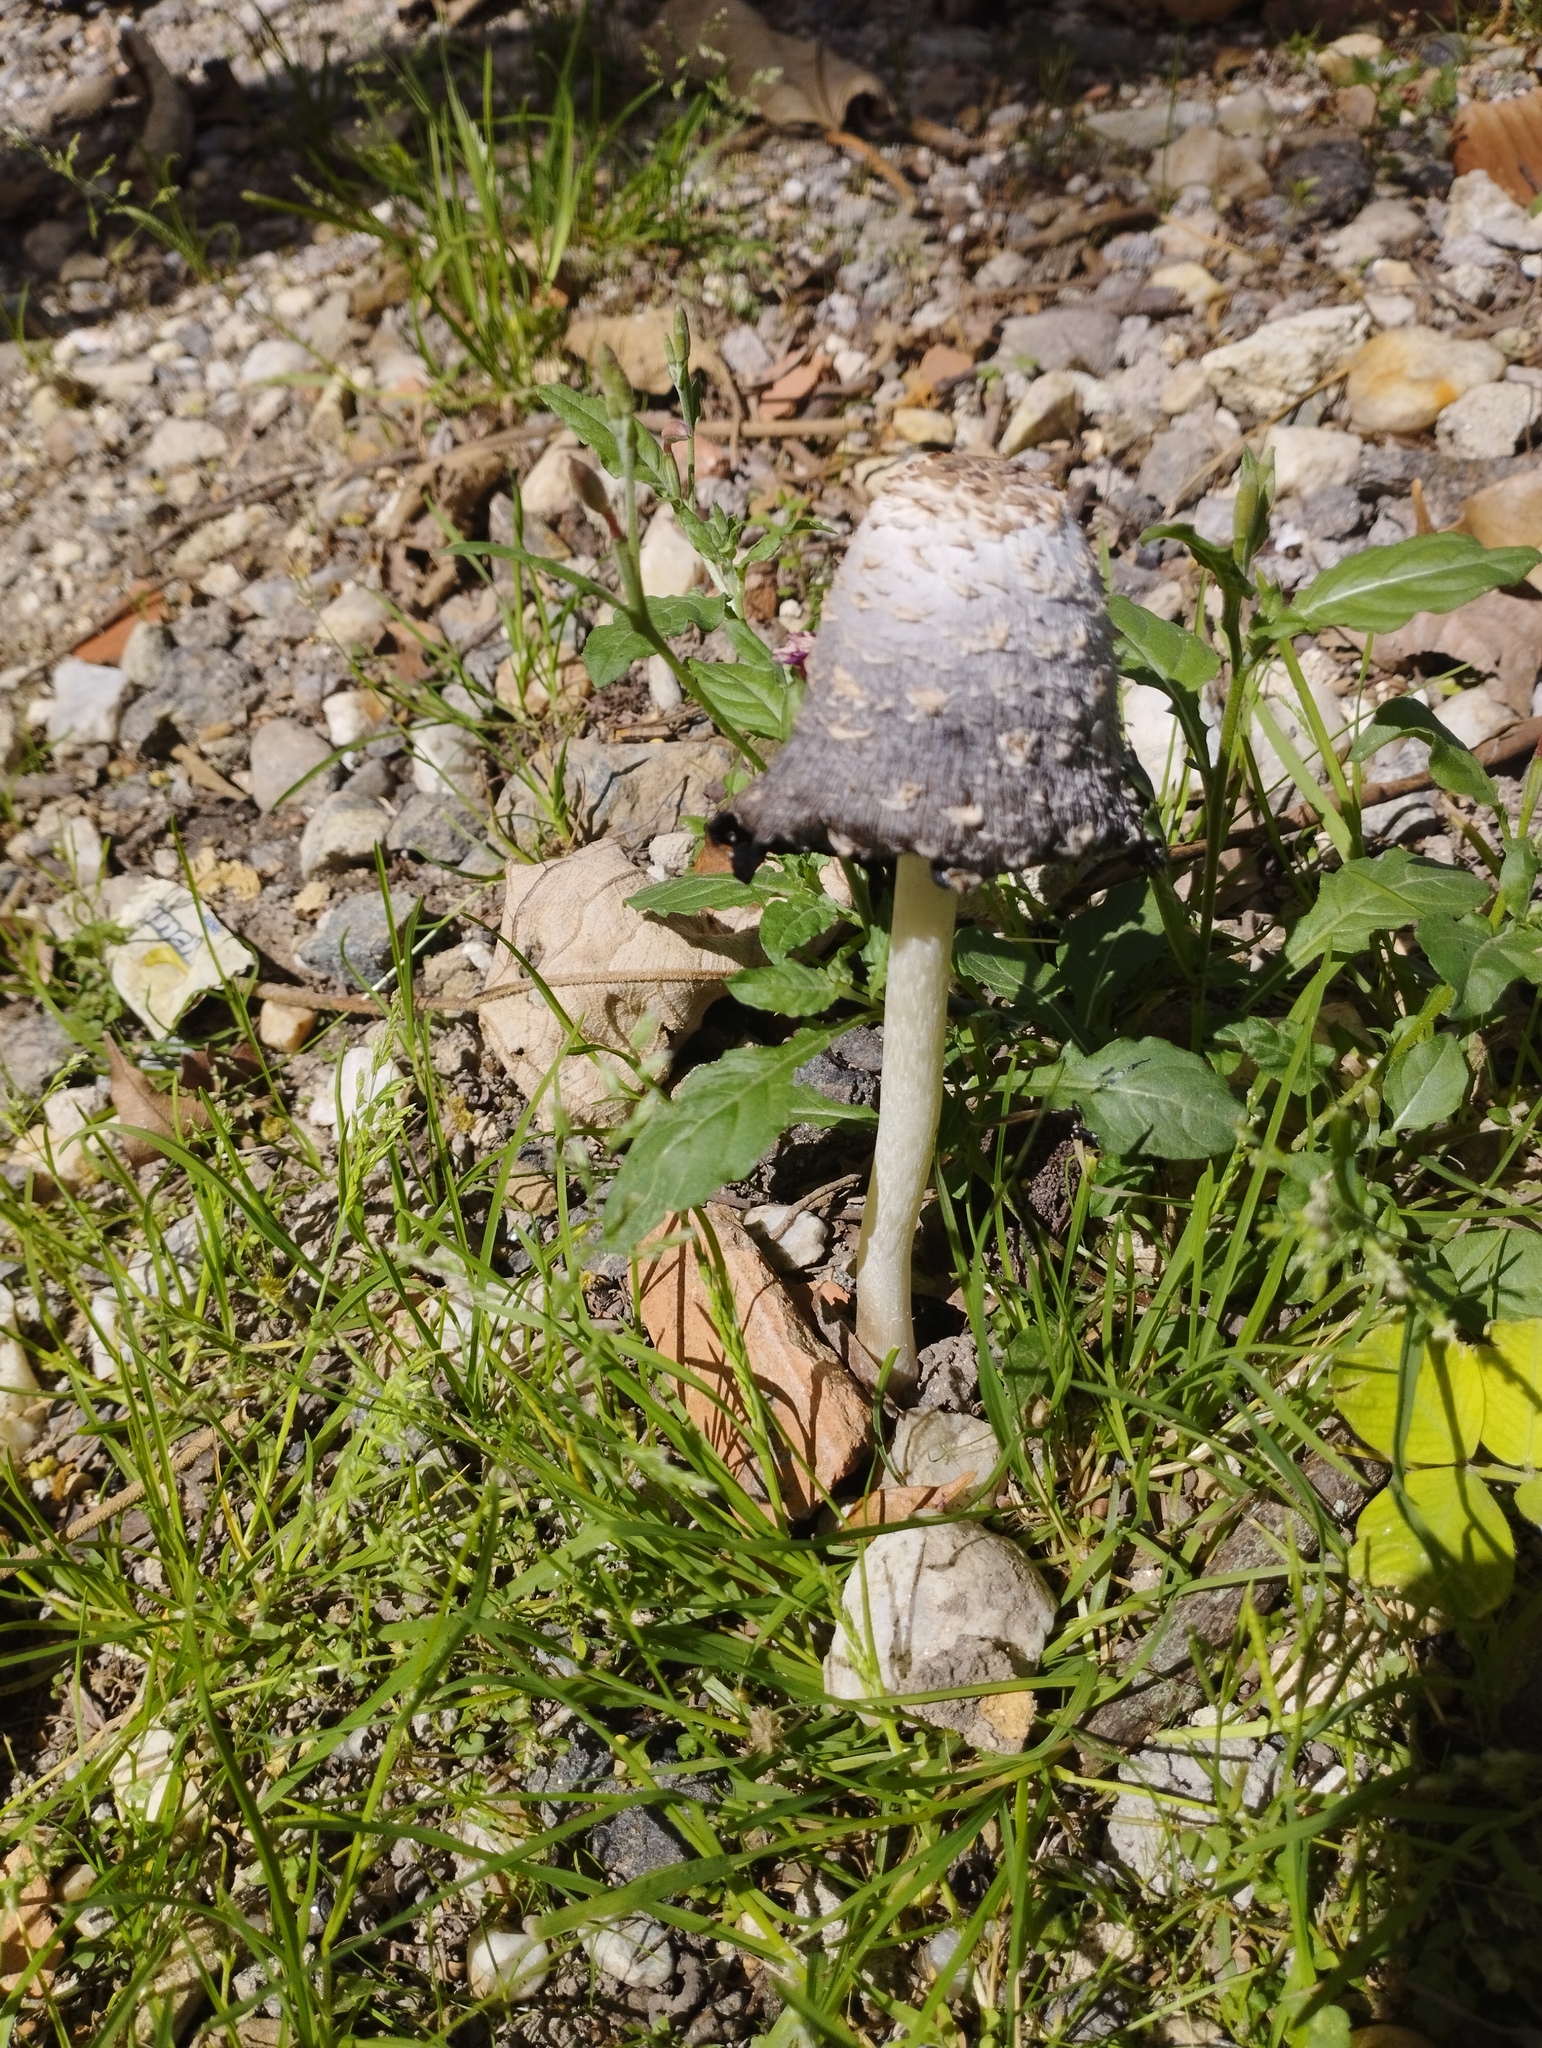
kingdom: Fungi
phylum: Basidiomycota
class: Agaricomycetes
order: Agaricales
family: Agaricaceae
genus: Coprinus
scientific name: Coprinus comatus
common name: Lawyer's wig
